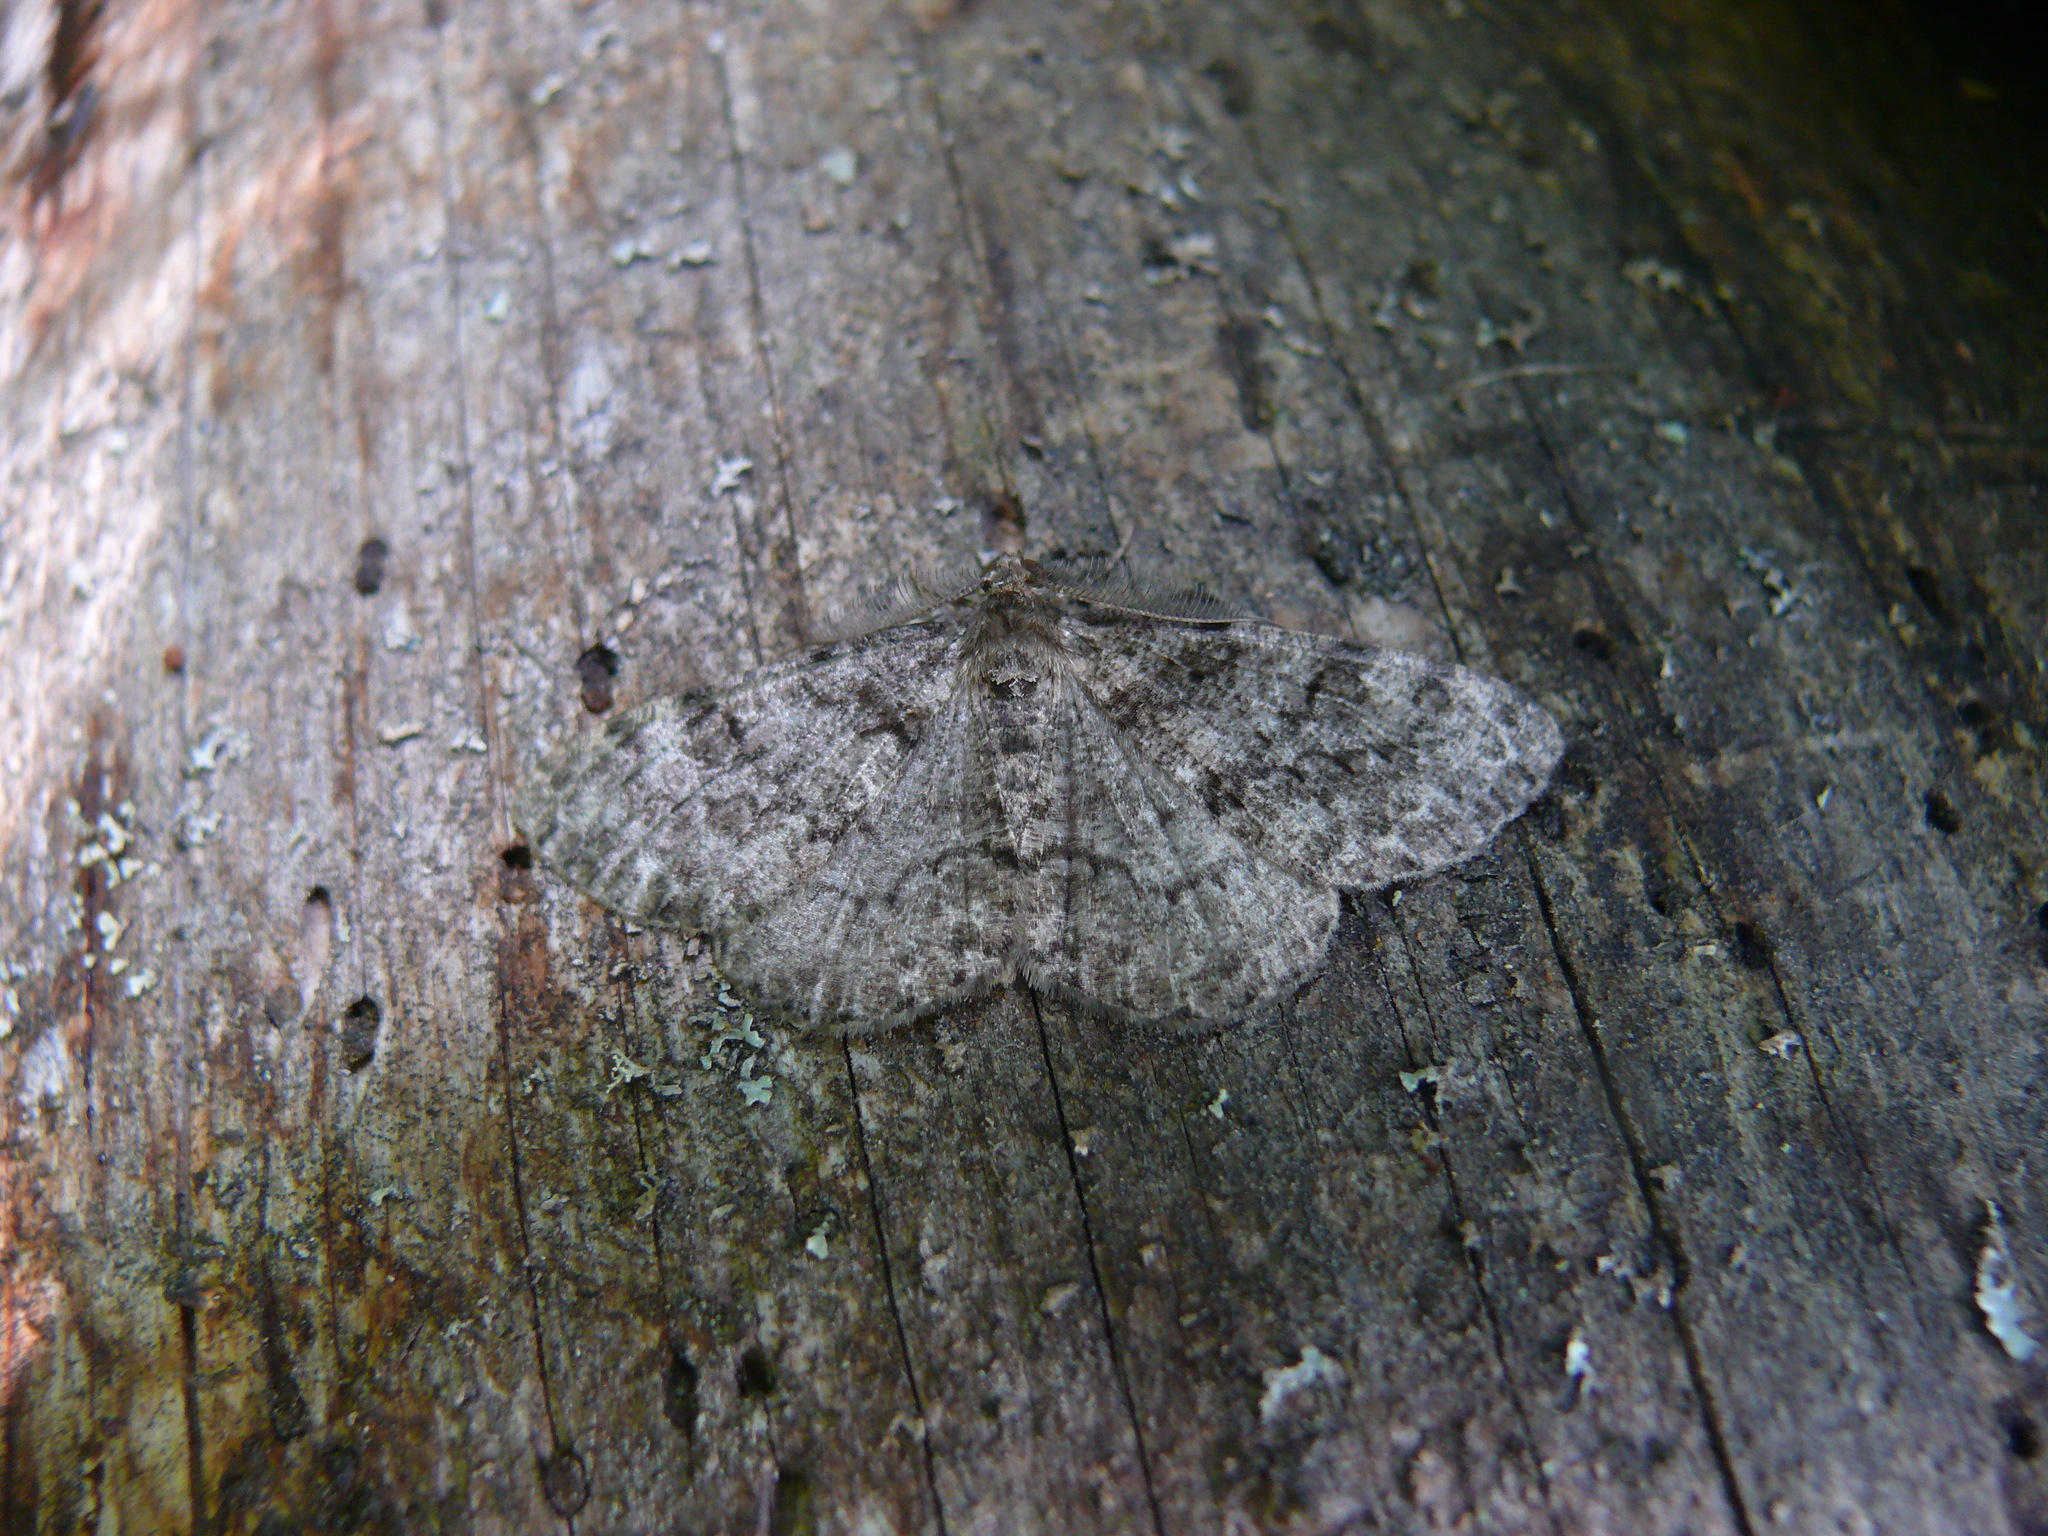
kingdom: Animalia
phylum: Arthropoda
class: Insecta
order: Lepidoptera
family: Geometridae
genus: Deileptenia
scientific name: Deileptenia ribeata
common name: Satin beauty
